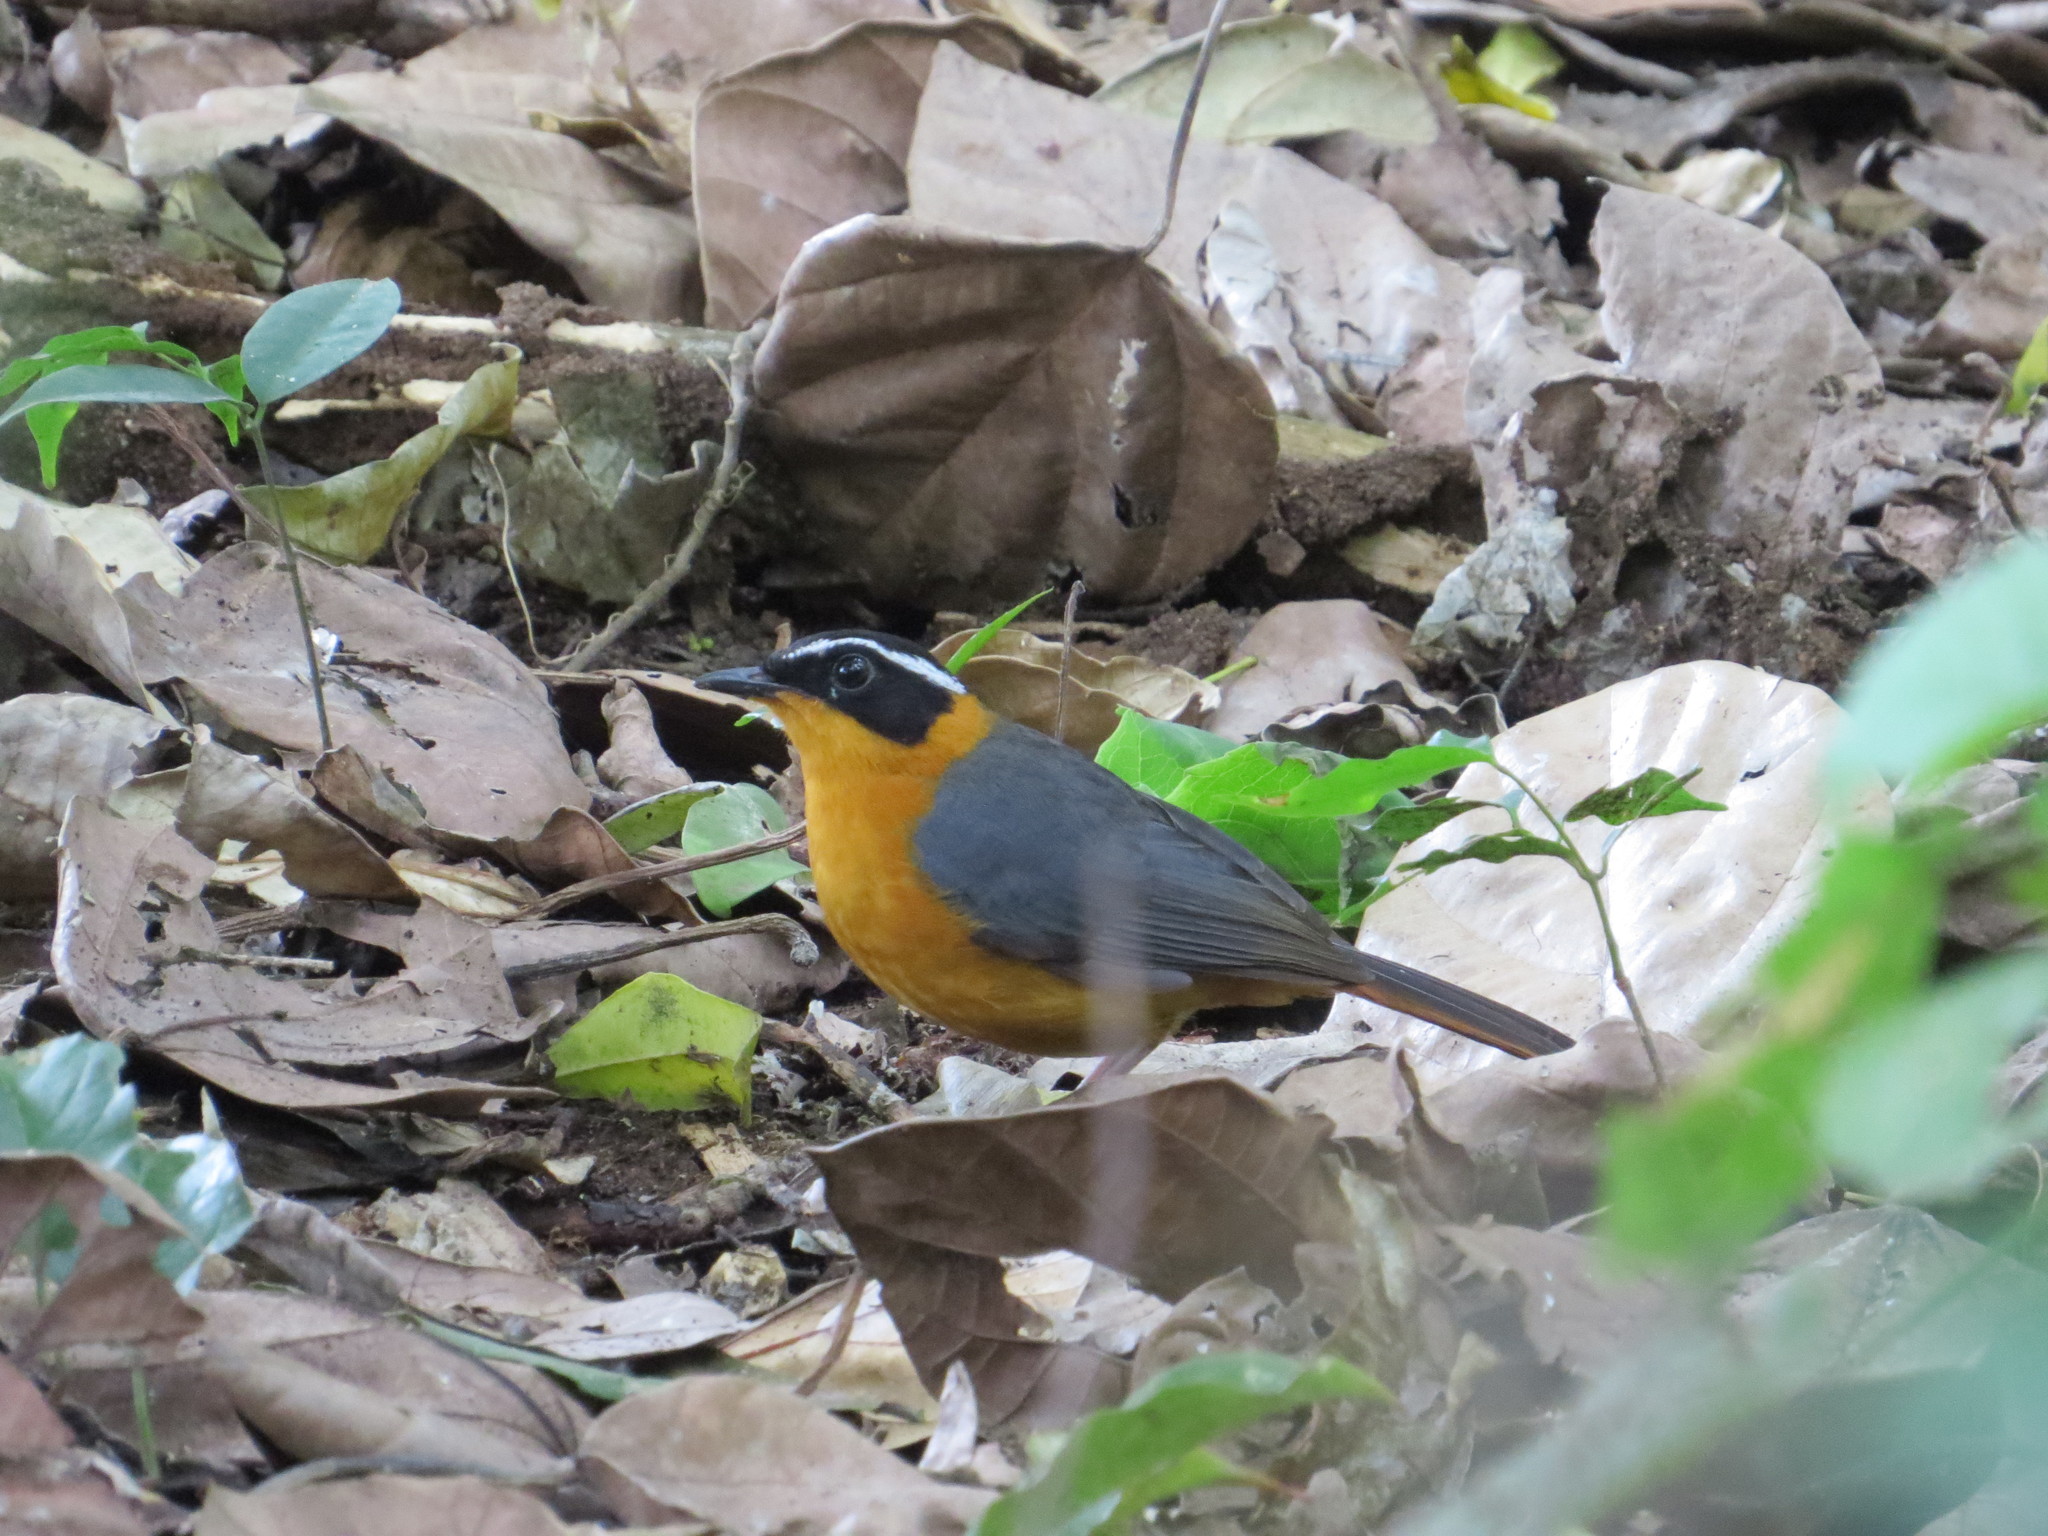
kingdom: Animalia
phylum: Chordata
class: Aves
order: Passeriformes
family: Muscicapidae
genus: Cossypha
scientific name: Cossypha heuglini
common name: White-browed robin-chat
